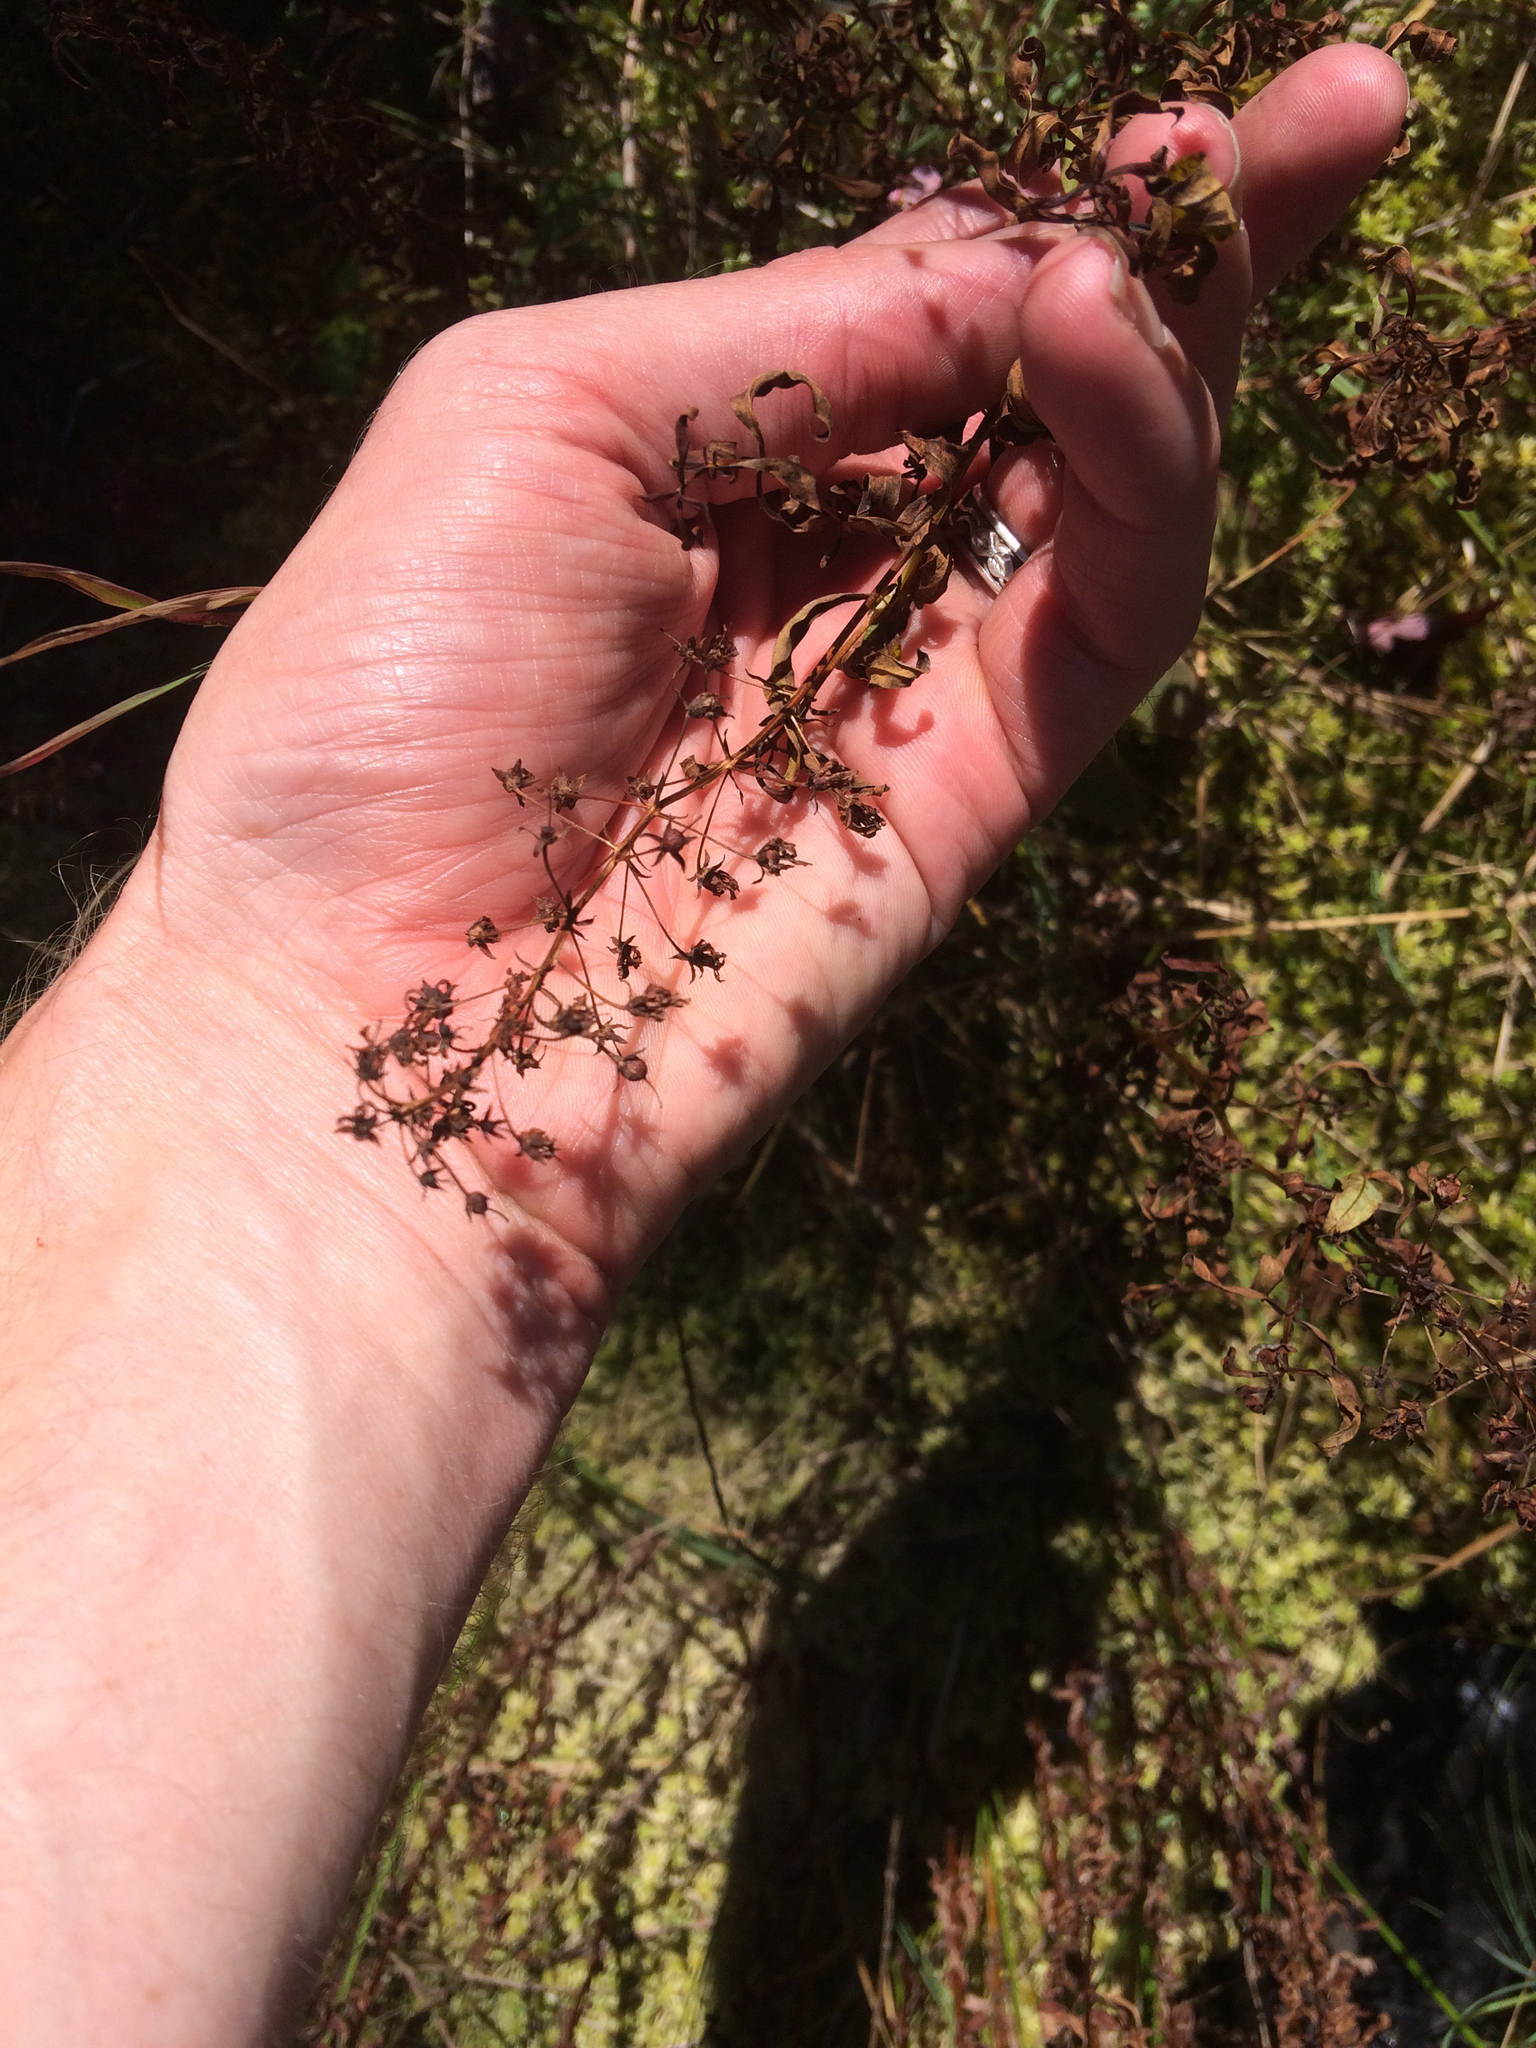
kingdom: Plantae
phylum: Tracheophyta
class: Magnoliopsida
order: Ericales
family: Primulaceae
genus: Lysimachia
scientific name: Lysimachia terrestris
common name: Lake loosestrife
